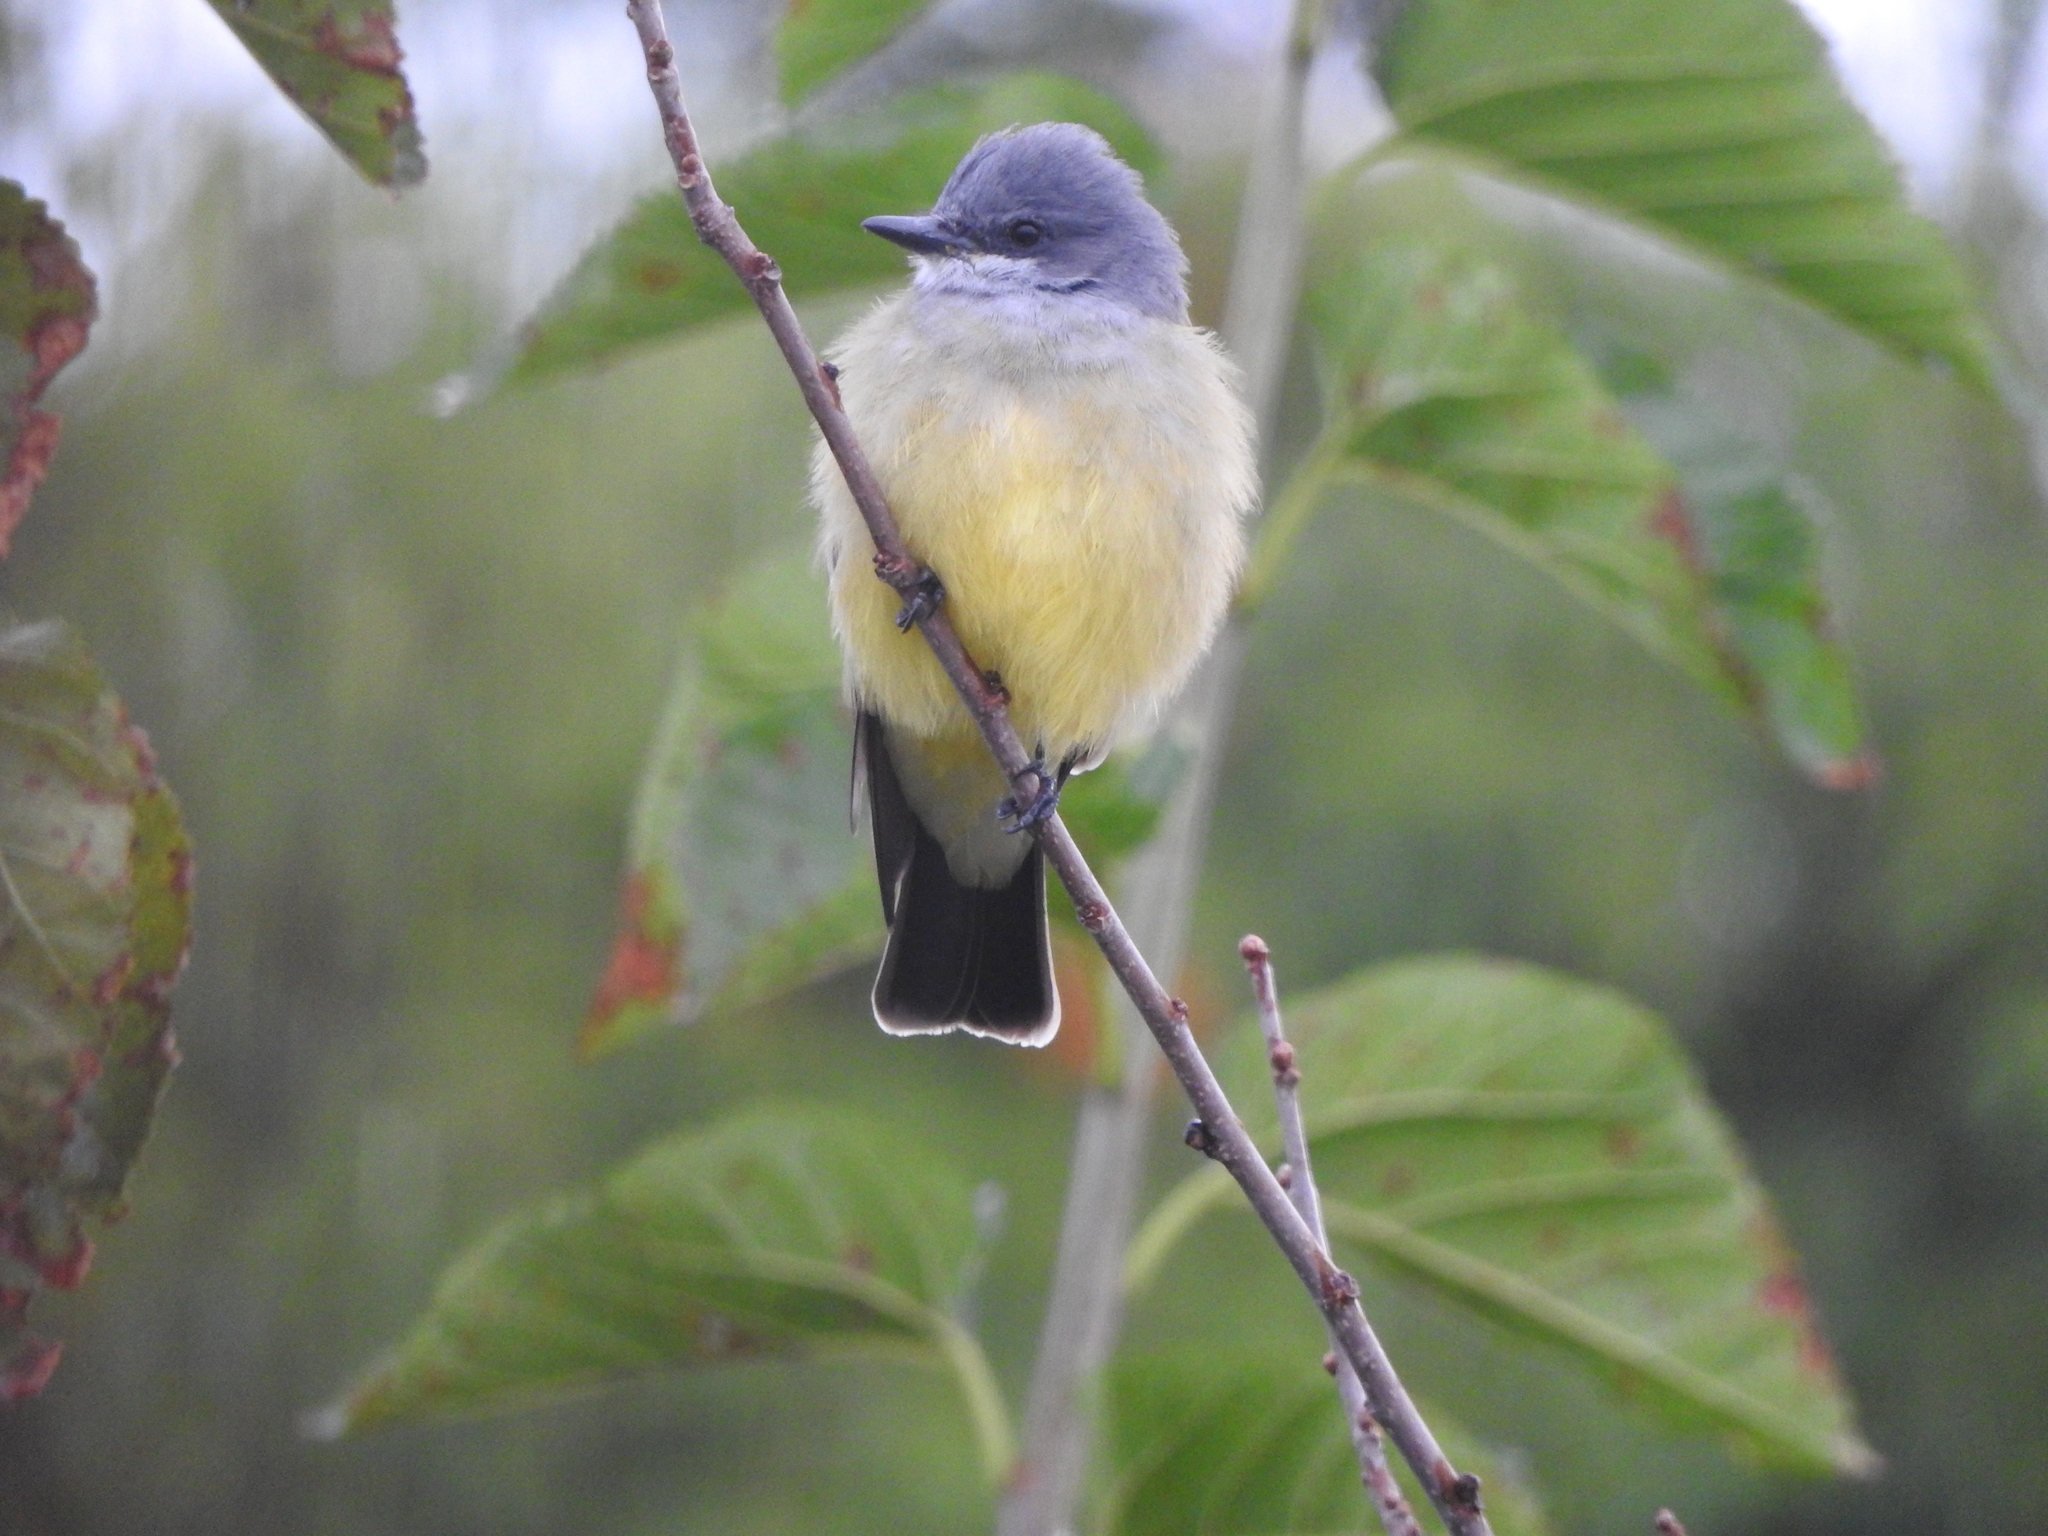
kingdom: Animalia
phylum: Chordata
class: Aves
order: Passeriformes
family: Tyrannidae
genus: Tyrannus
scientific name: Tyrannus vociferans
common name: Cassin's kingbird
